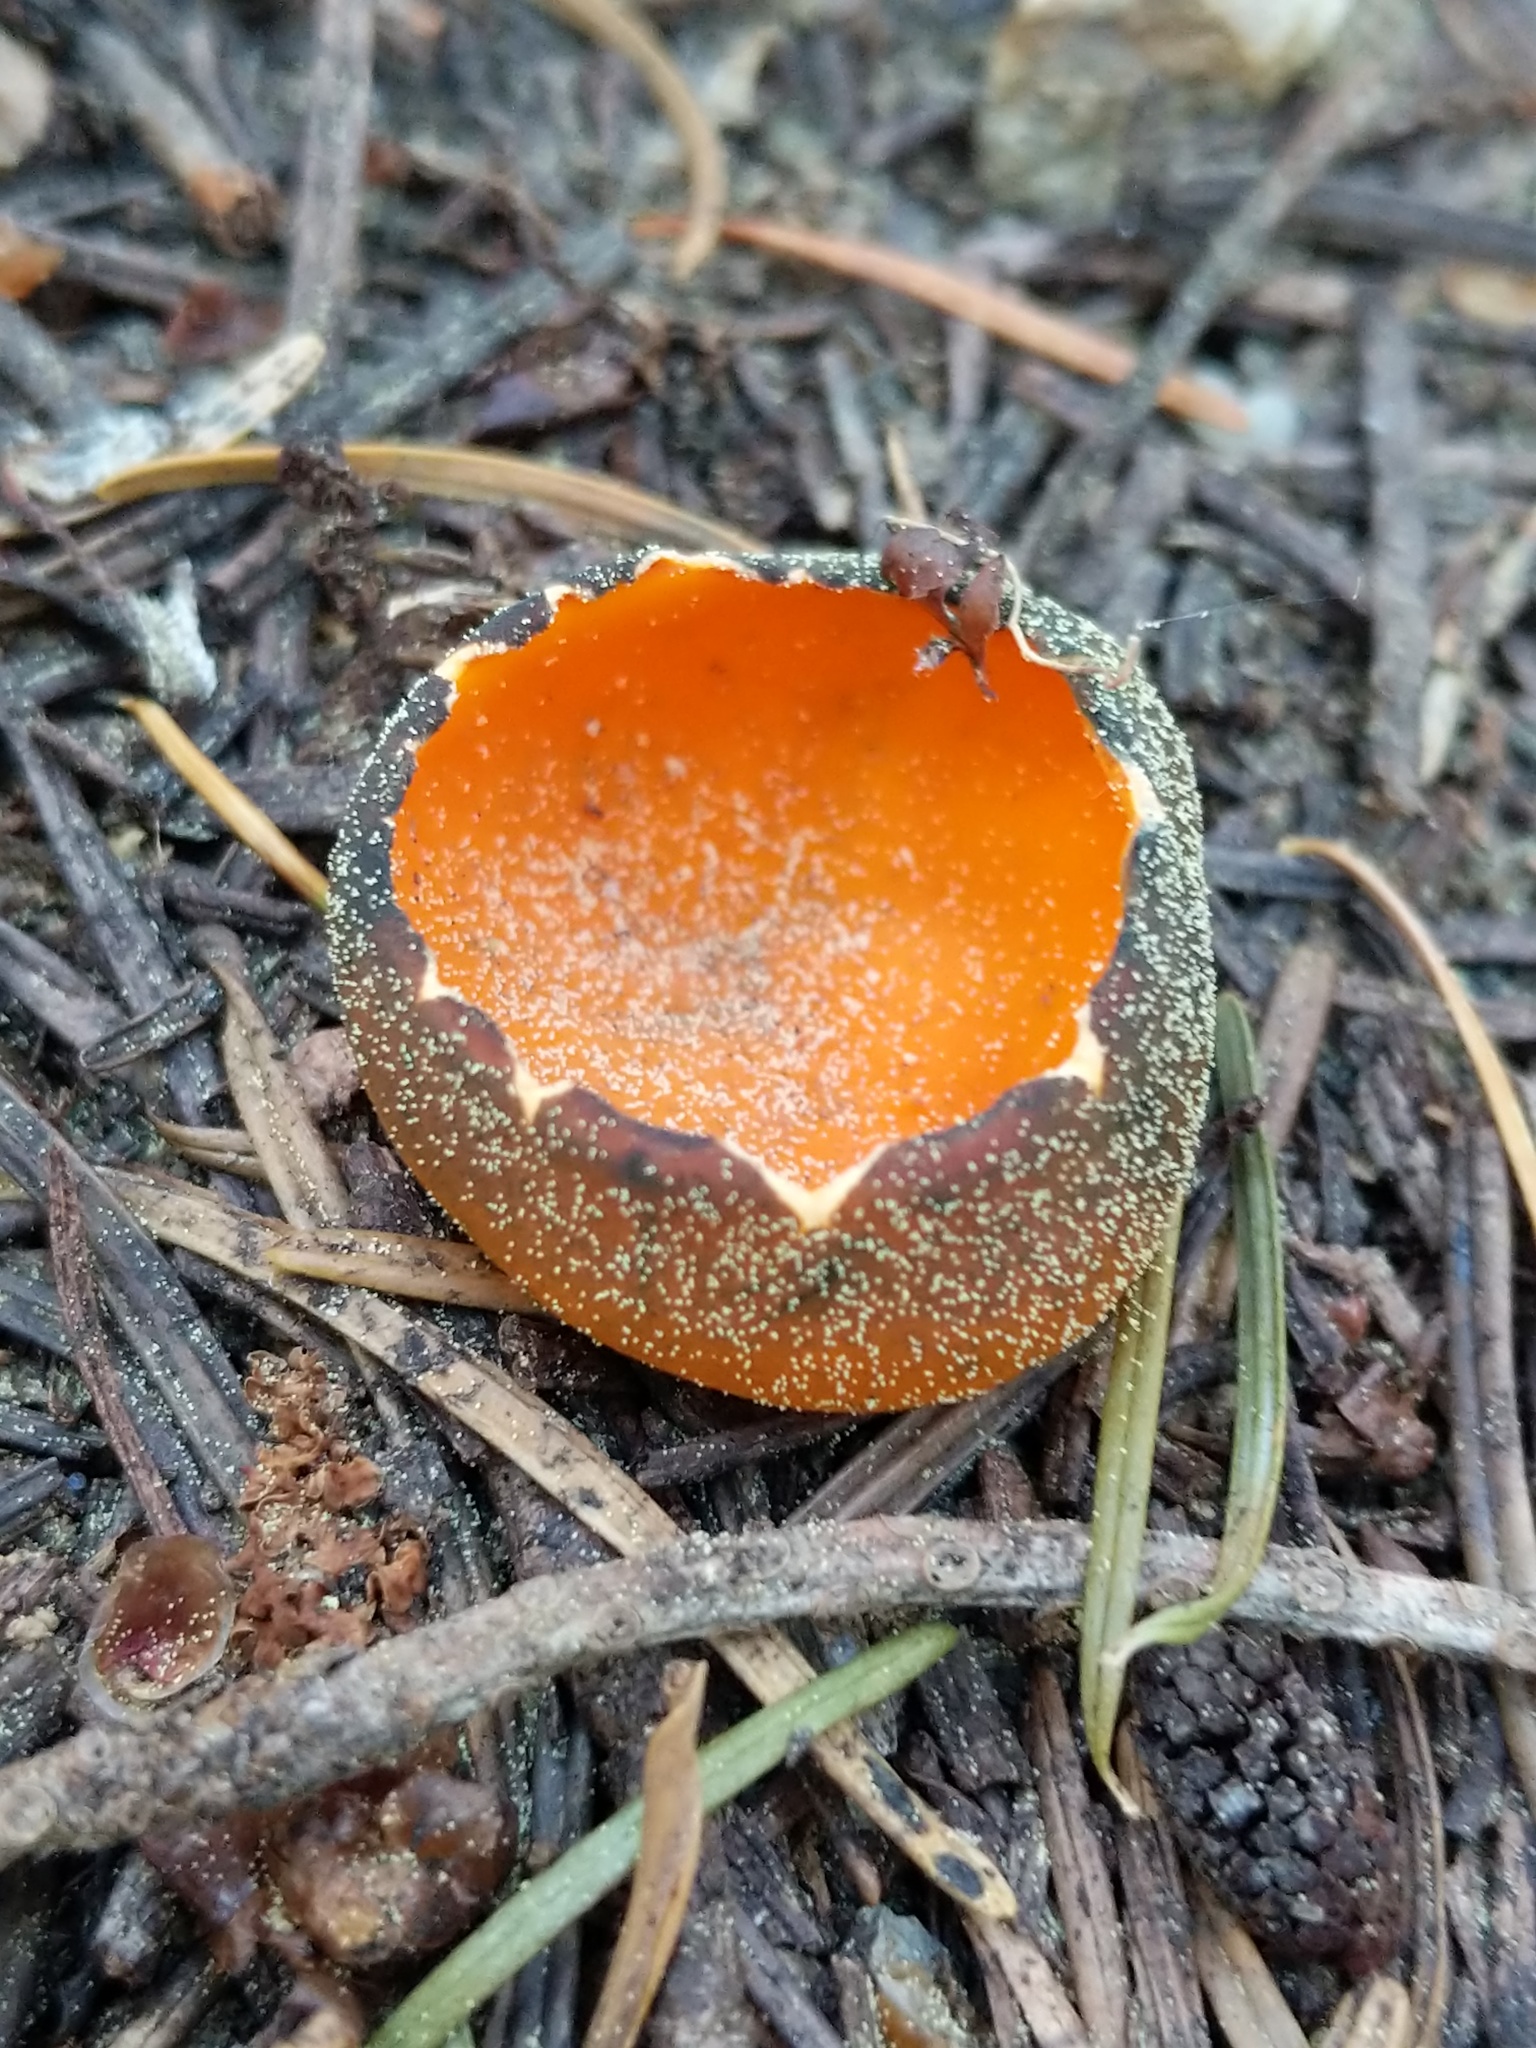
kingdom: Fungi
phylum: Ascomycota
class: Pezizomycetes
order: Pezizales
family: Caloscyphaceae
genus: Caloscypha
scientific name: Caloscypha fulgens
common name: Golden cup
